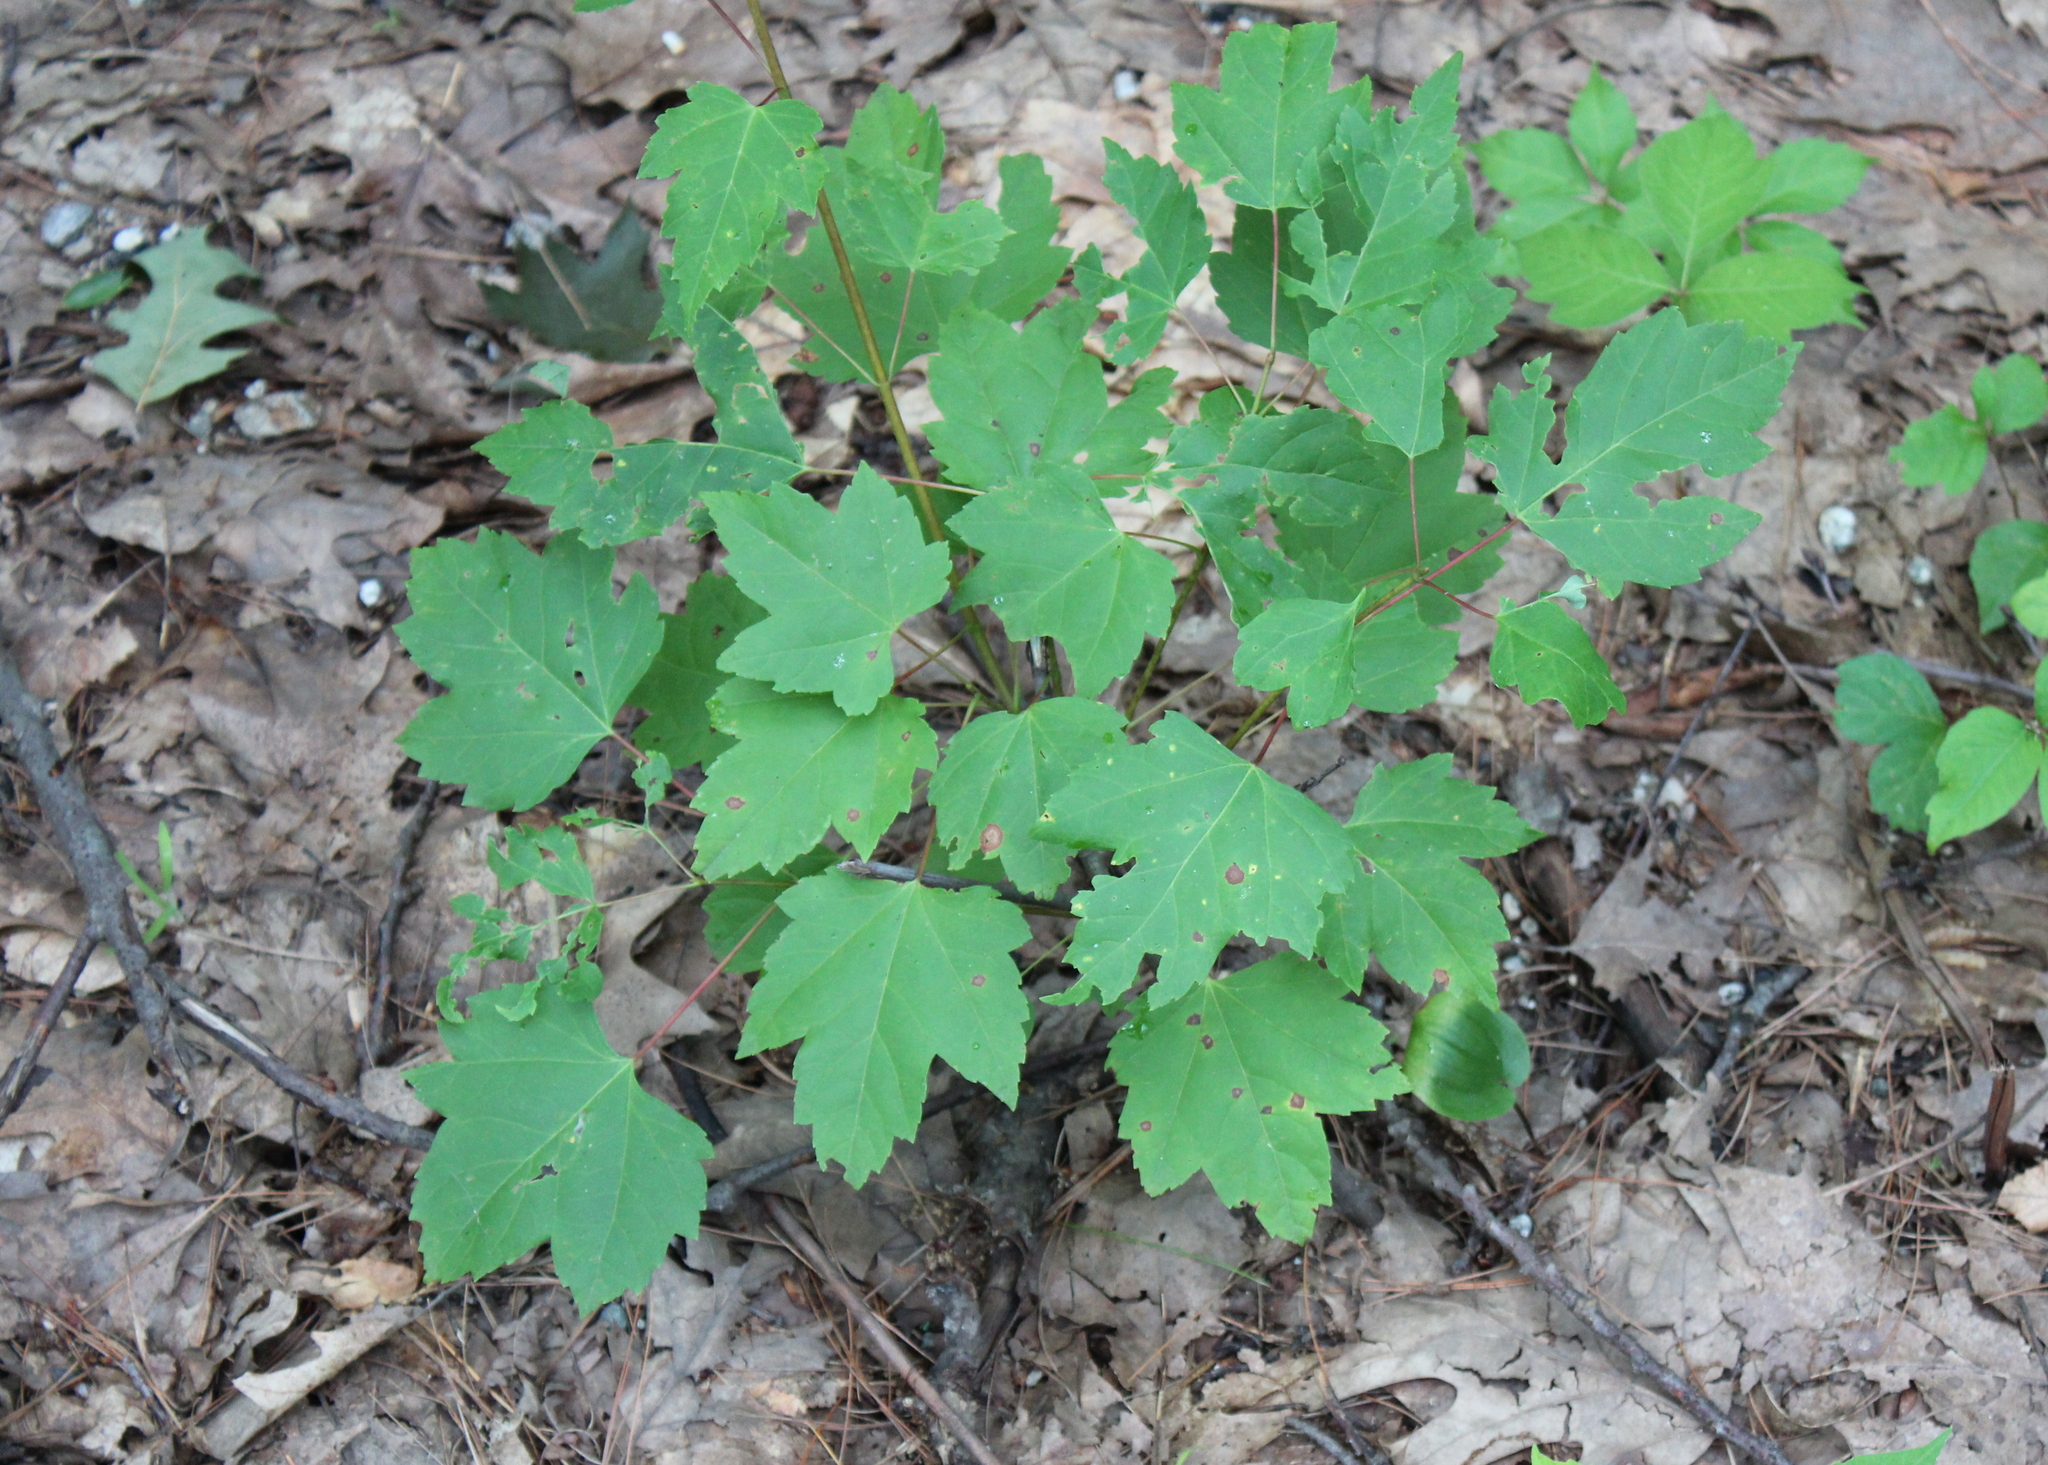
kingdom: Plantae
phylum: Tracheophyta
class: Magnoliopsida
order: Sapindales
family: Sapindaceae
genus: Acer
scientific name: Acer rubrum
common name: Red maple
